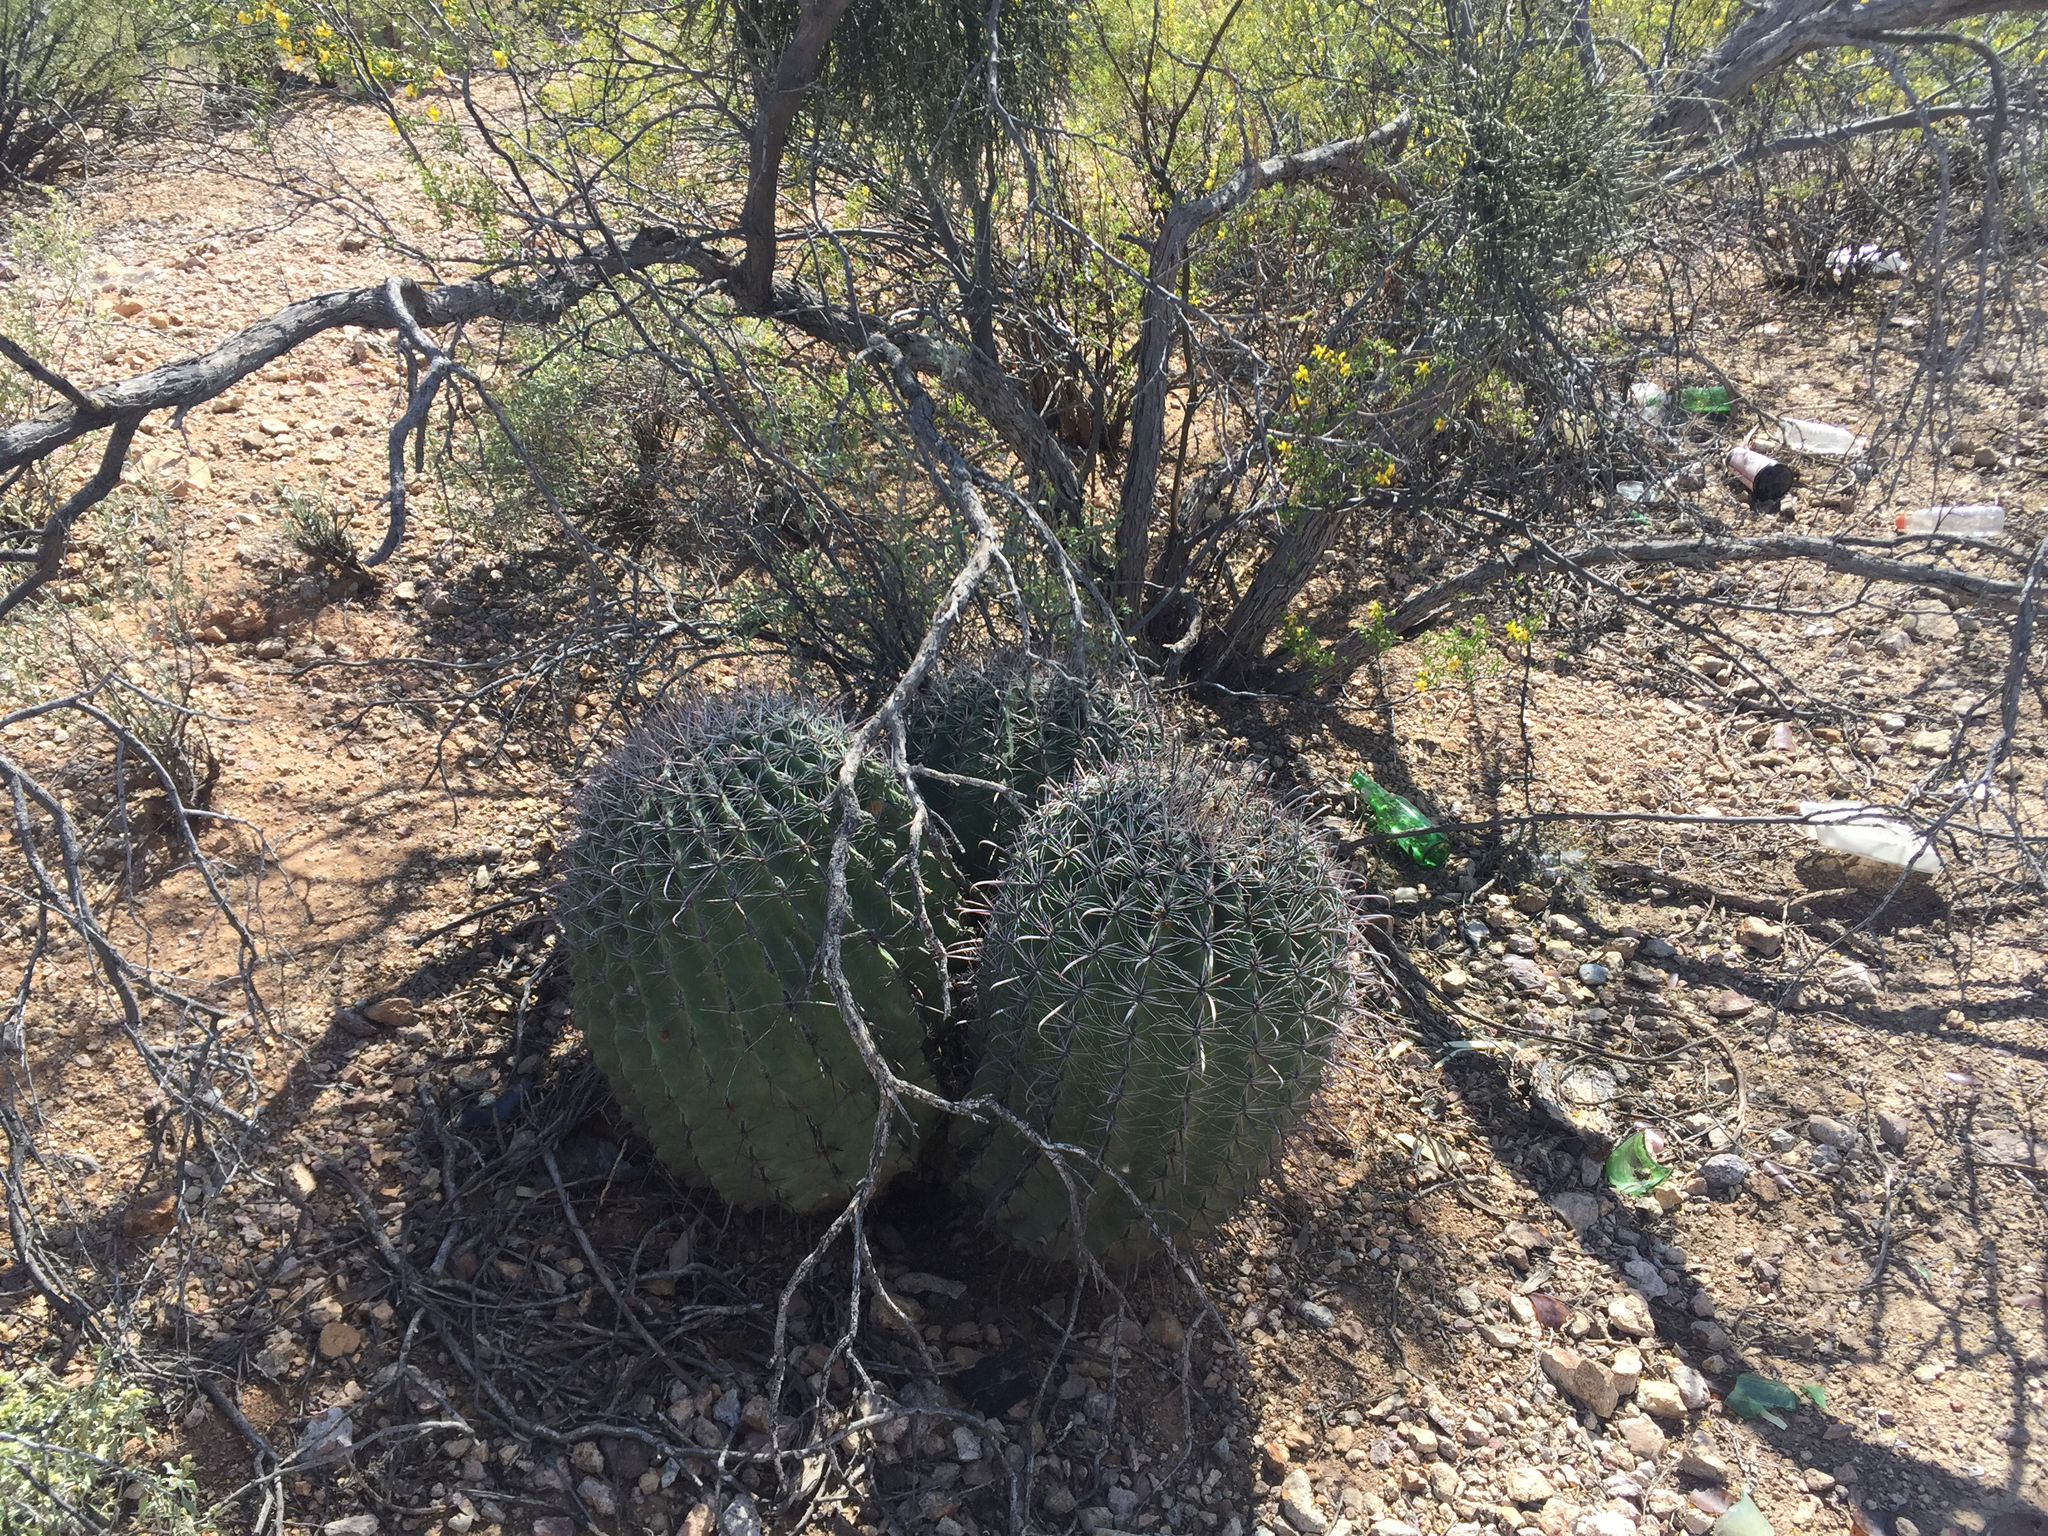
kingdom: Plantae
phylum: Tracheophyta
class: Magnoliopsida
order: Caryophyllales
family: Cactaceae
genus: Ferocactus
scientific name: Ferocactus wislizeni
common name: Candy barrel cactus
